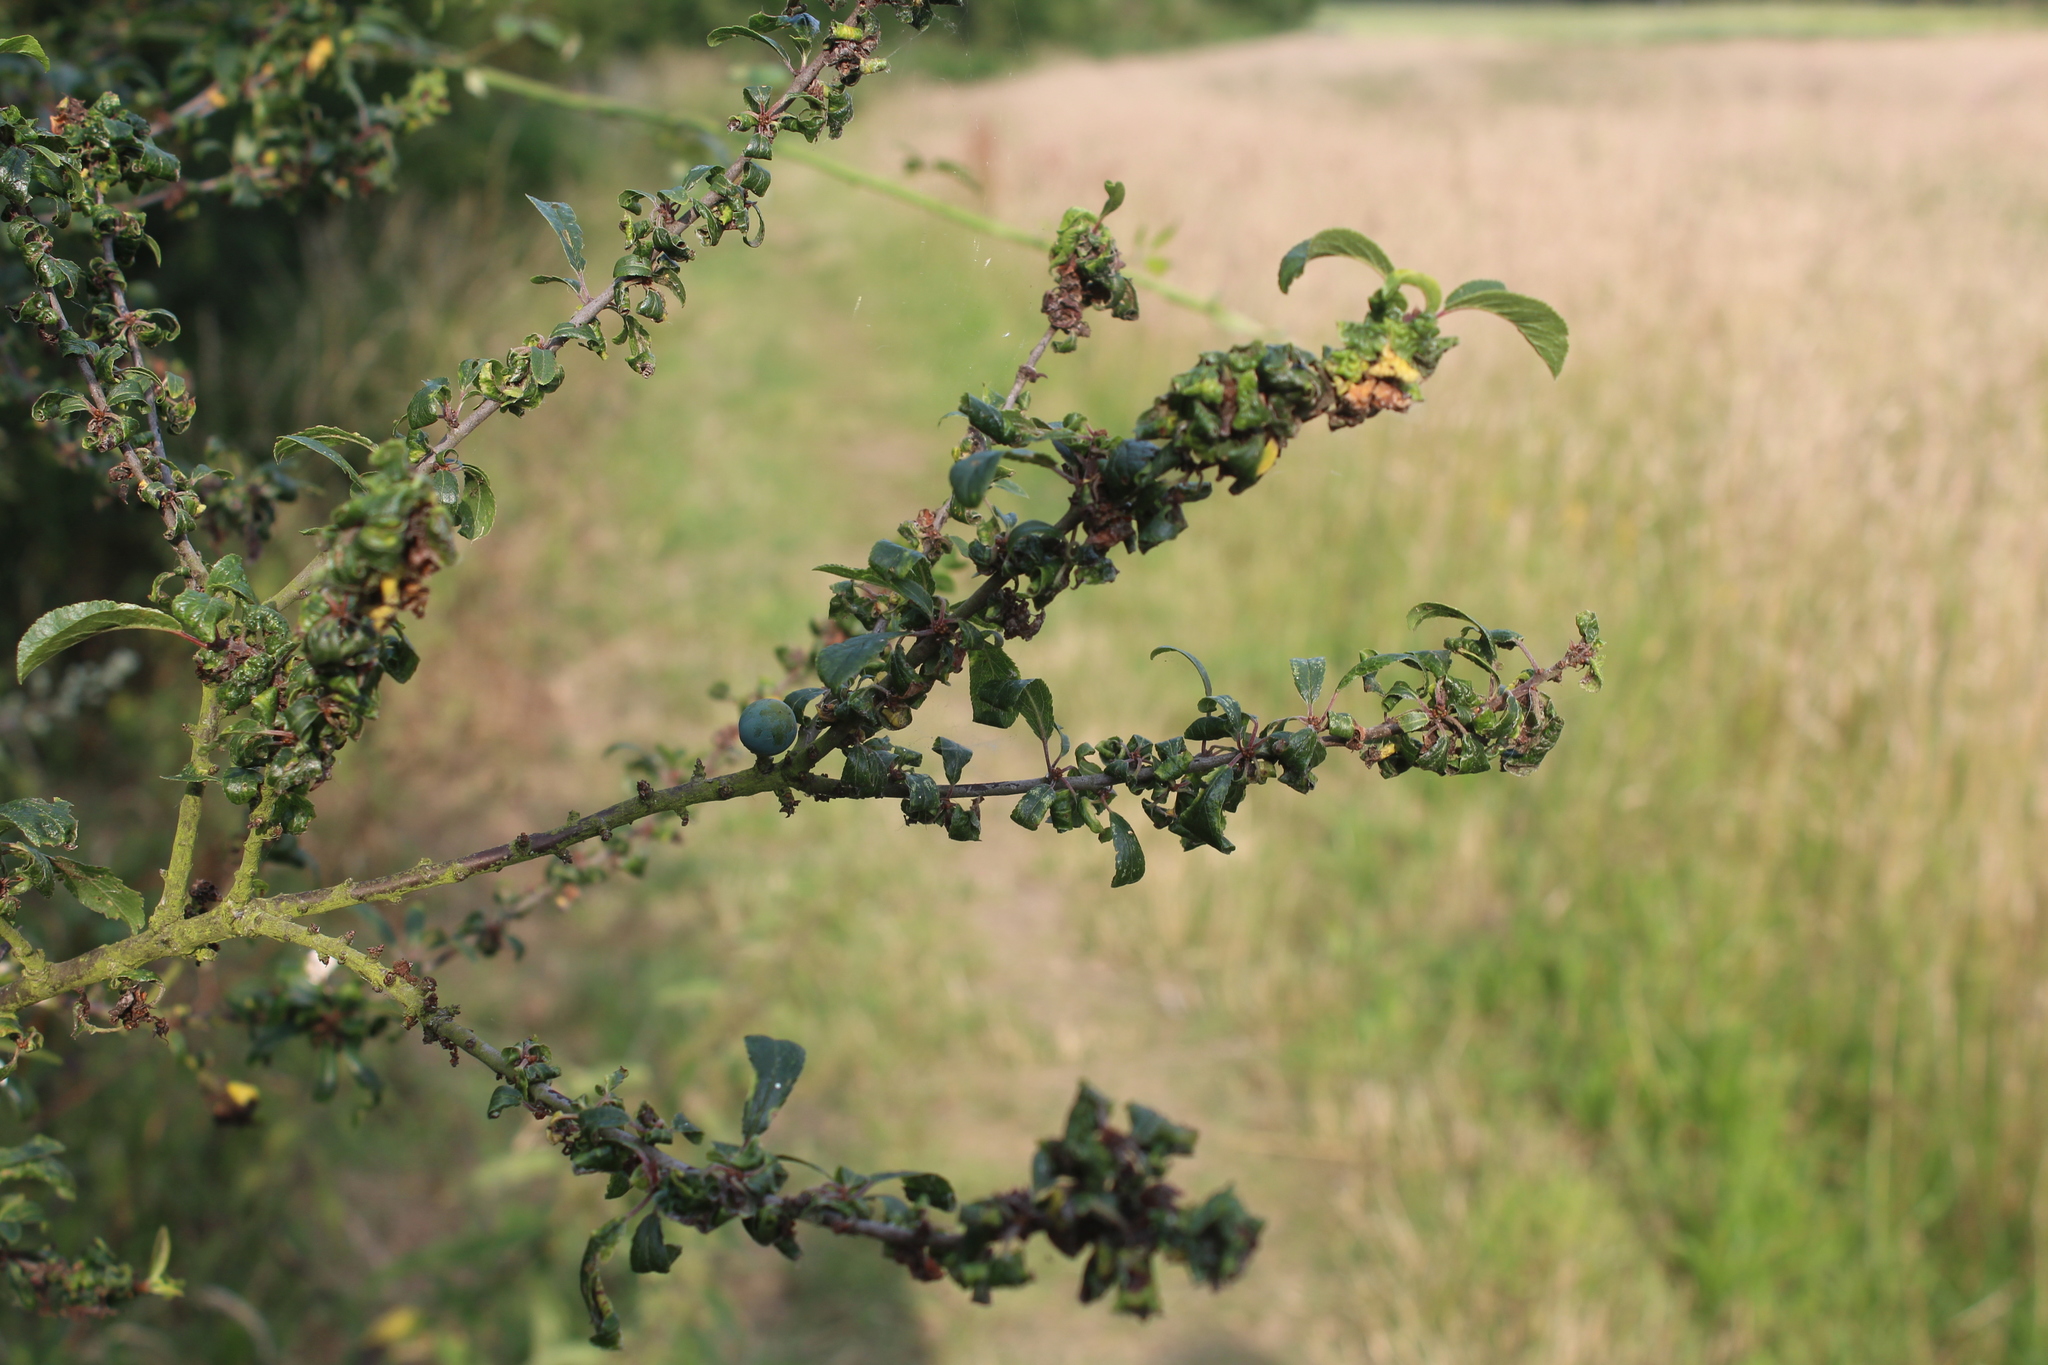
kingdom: Plantae
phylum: Tracheophyta
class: Magnoliopsida
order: Rosales
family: Rosaceae
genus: Prunus
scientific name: Prunus spinosa
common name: Blackthorn
